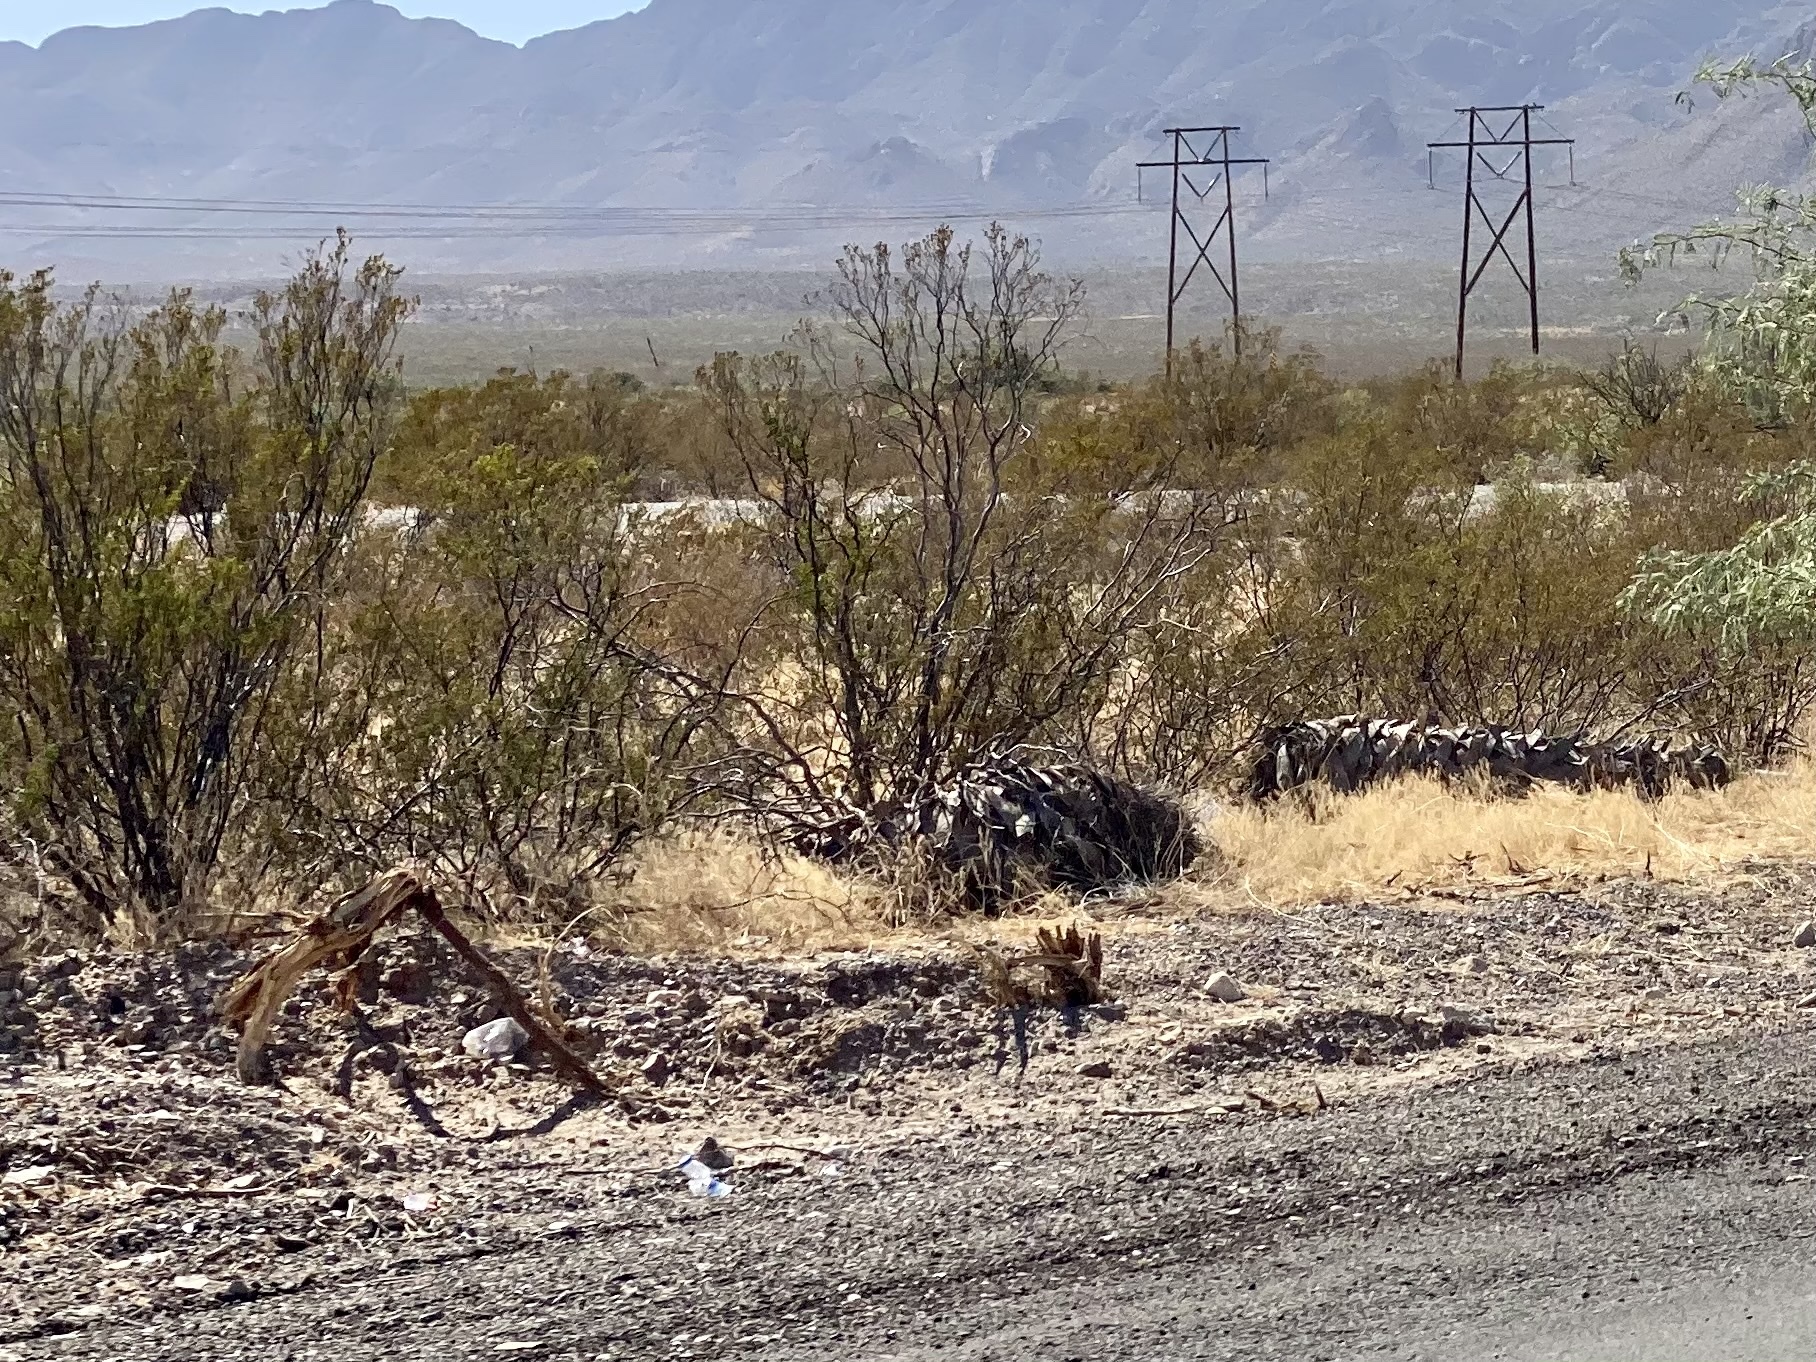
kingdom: Plantae
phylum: Tracheophyta
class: Magnoliopsida
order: Zygophyllales
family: Zygophyllaceae
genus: Larrea
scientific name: Larrea tridentata
